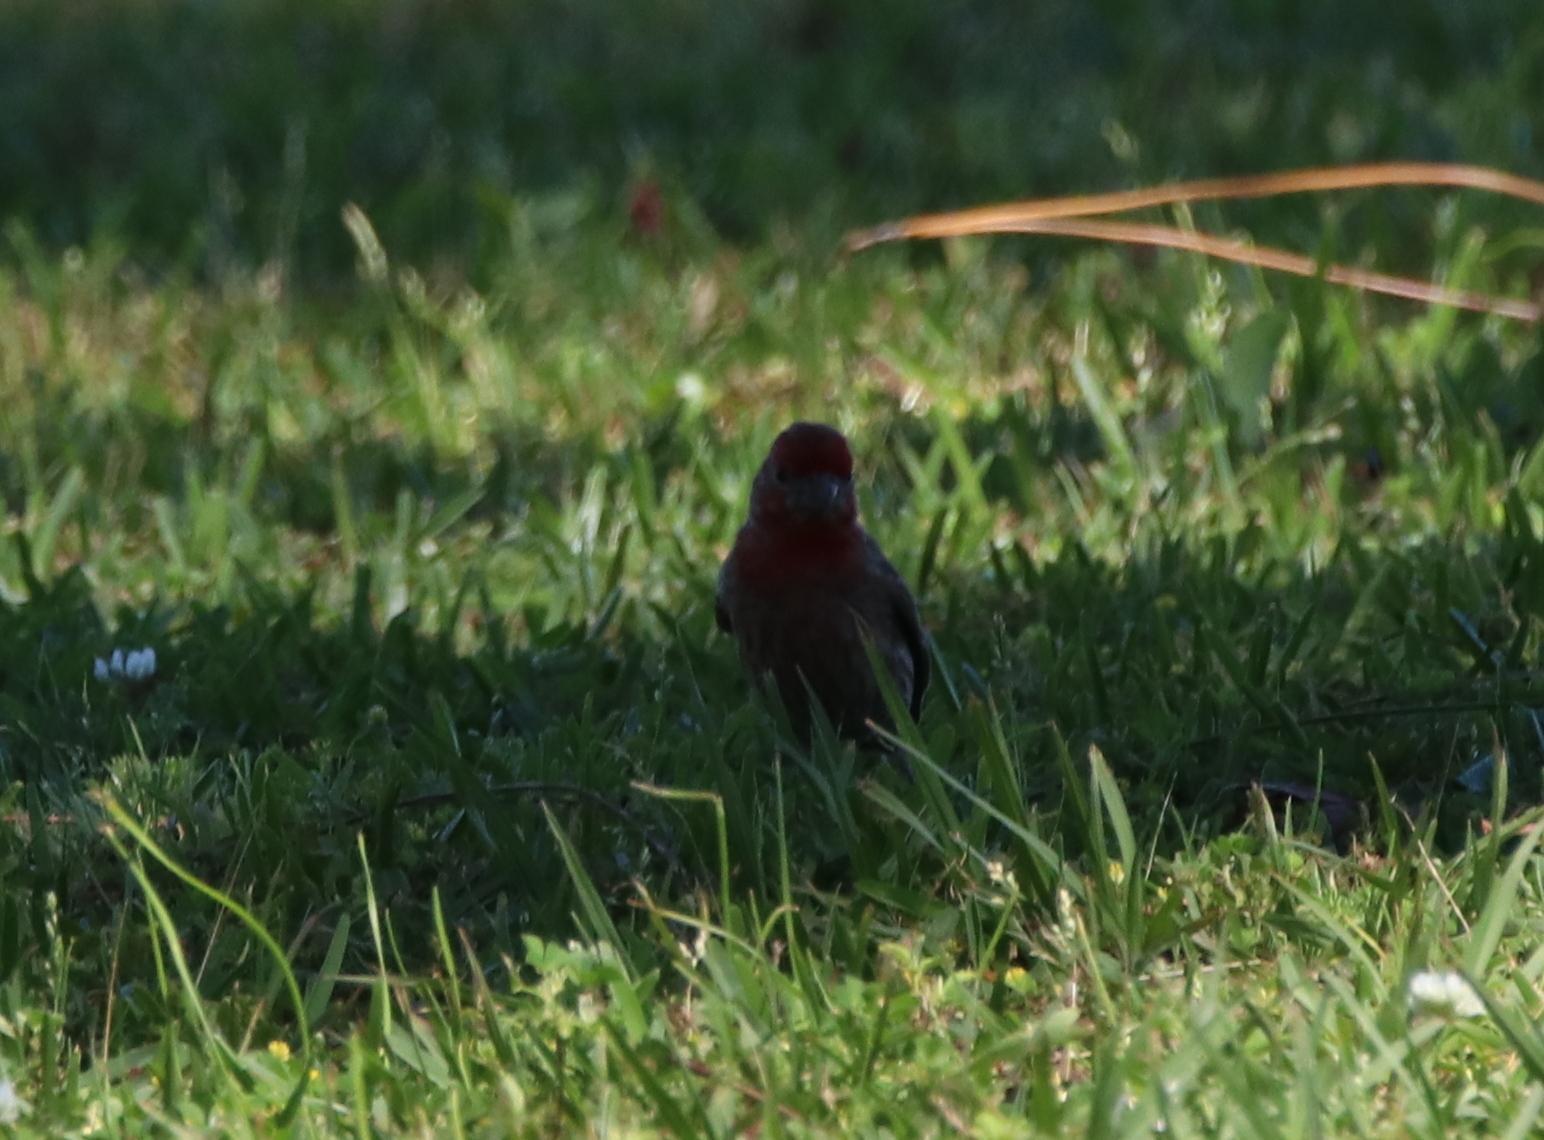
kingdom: Animalia
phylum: Chordata
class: Aves
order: Passeriformes
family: Fringillidae
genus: Haemorhous
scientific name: Haemorhous mexicanus
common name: House finch
